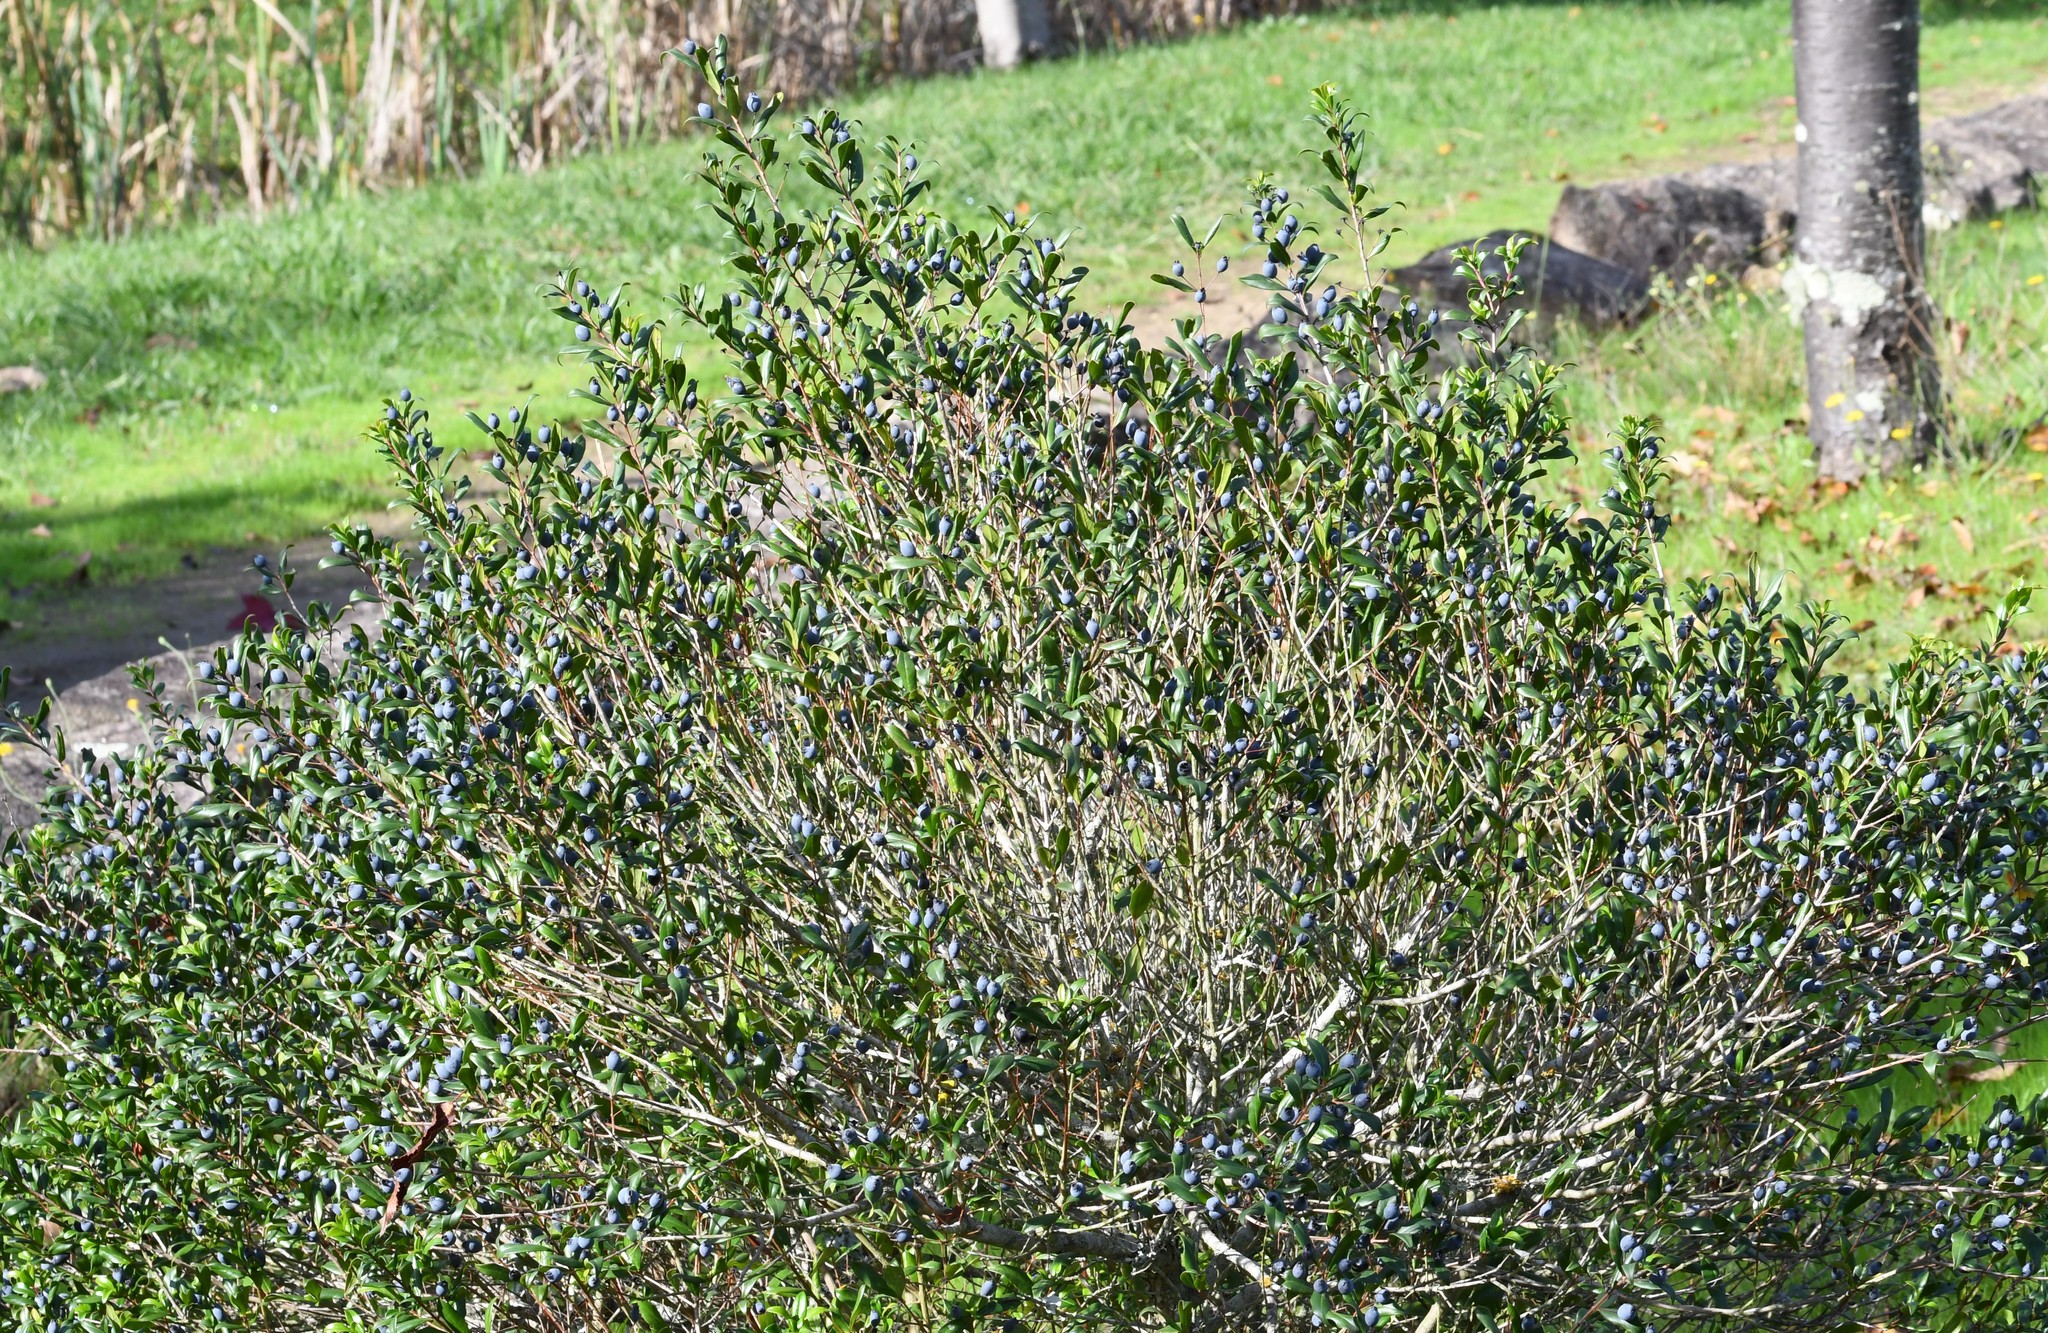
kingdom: Plantae
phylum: Tracheophyta
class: Magnoliopsida
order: Myrtales
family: Myrtaceae
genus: Myrtus
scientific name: Myrtus communis
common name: Myrtle
